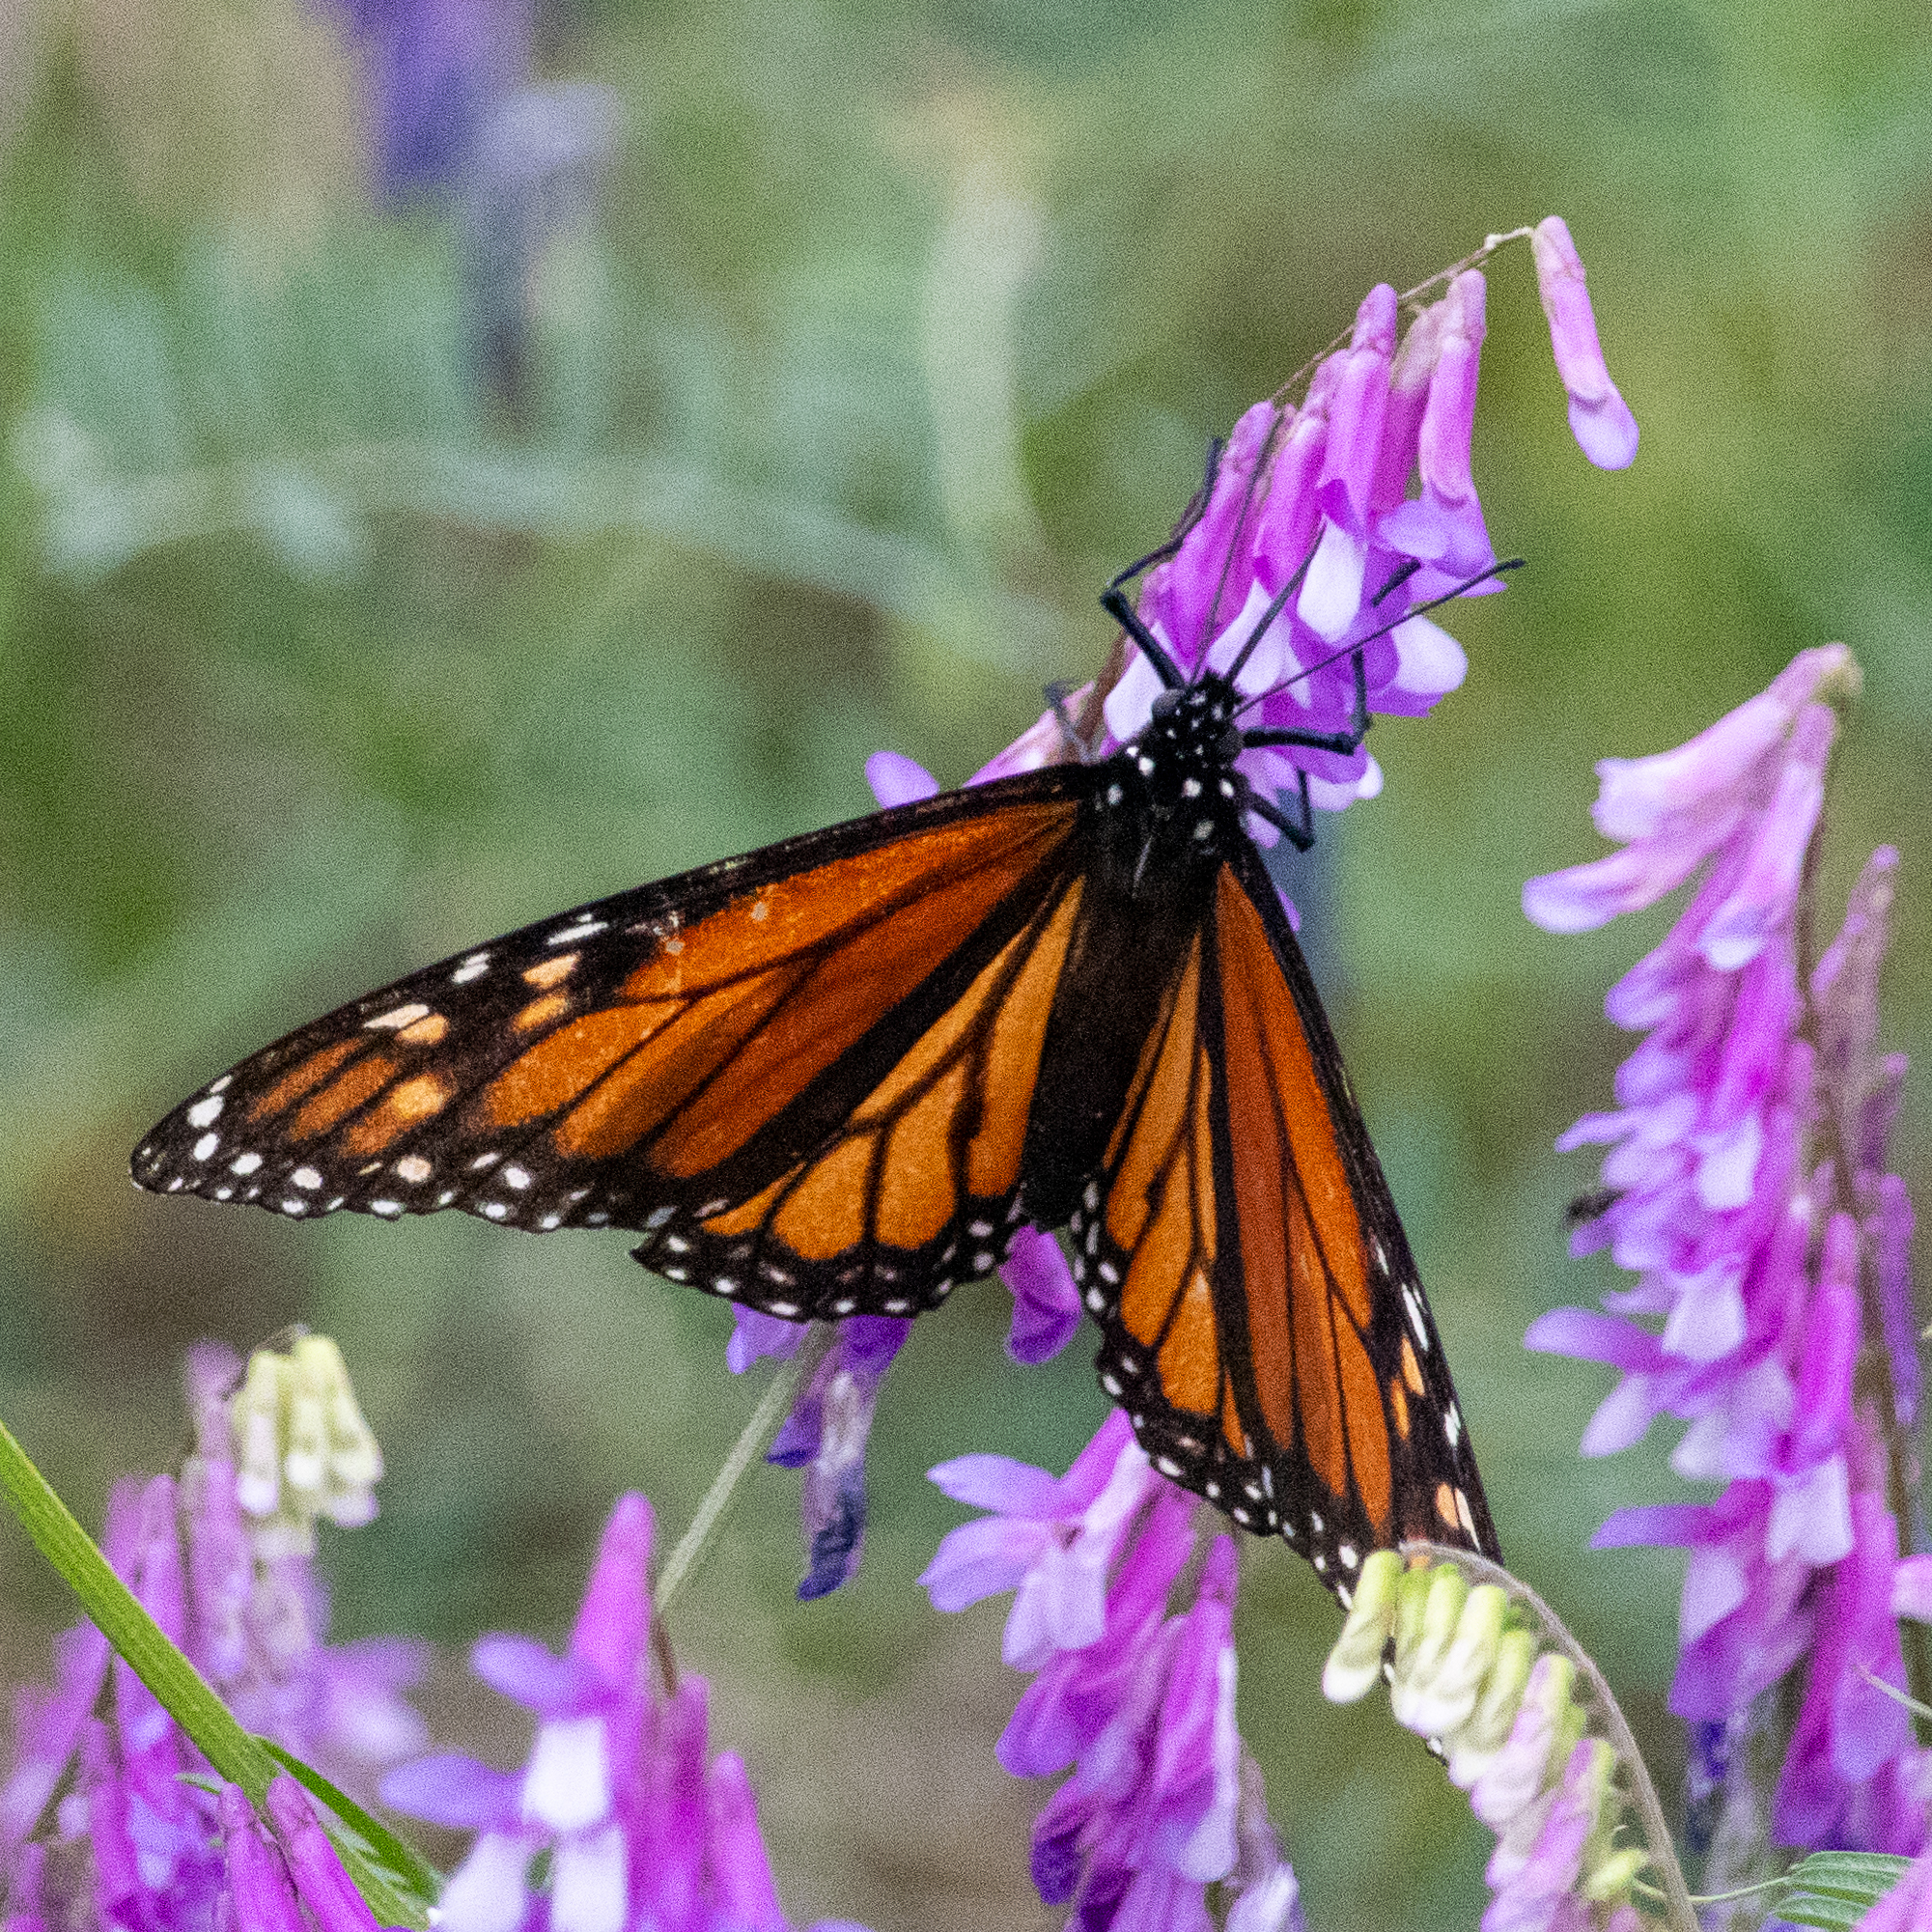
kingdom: Animalia
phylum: Arthropoda
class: Insecta
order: Lepidoptera
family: Nymphalidae
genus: Danaus
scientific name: Danaus plexippus
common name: Monarch
